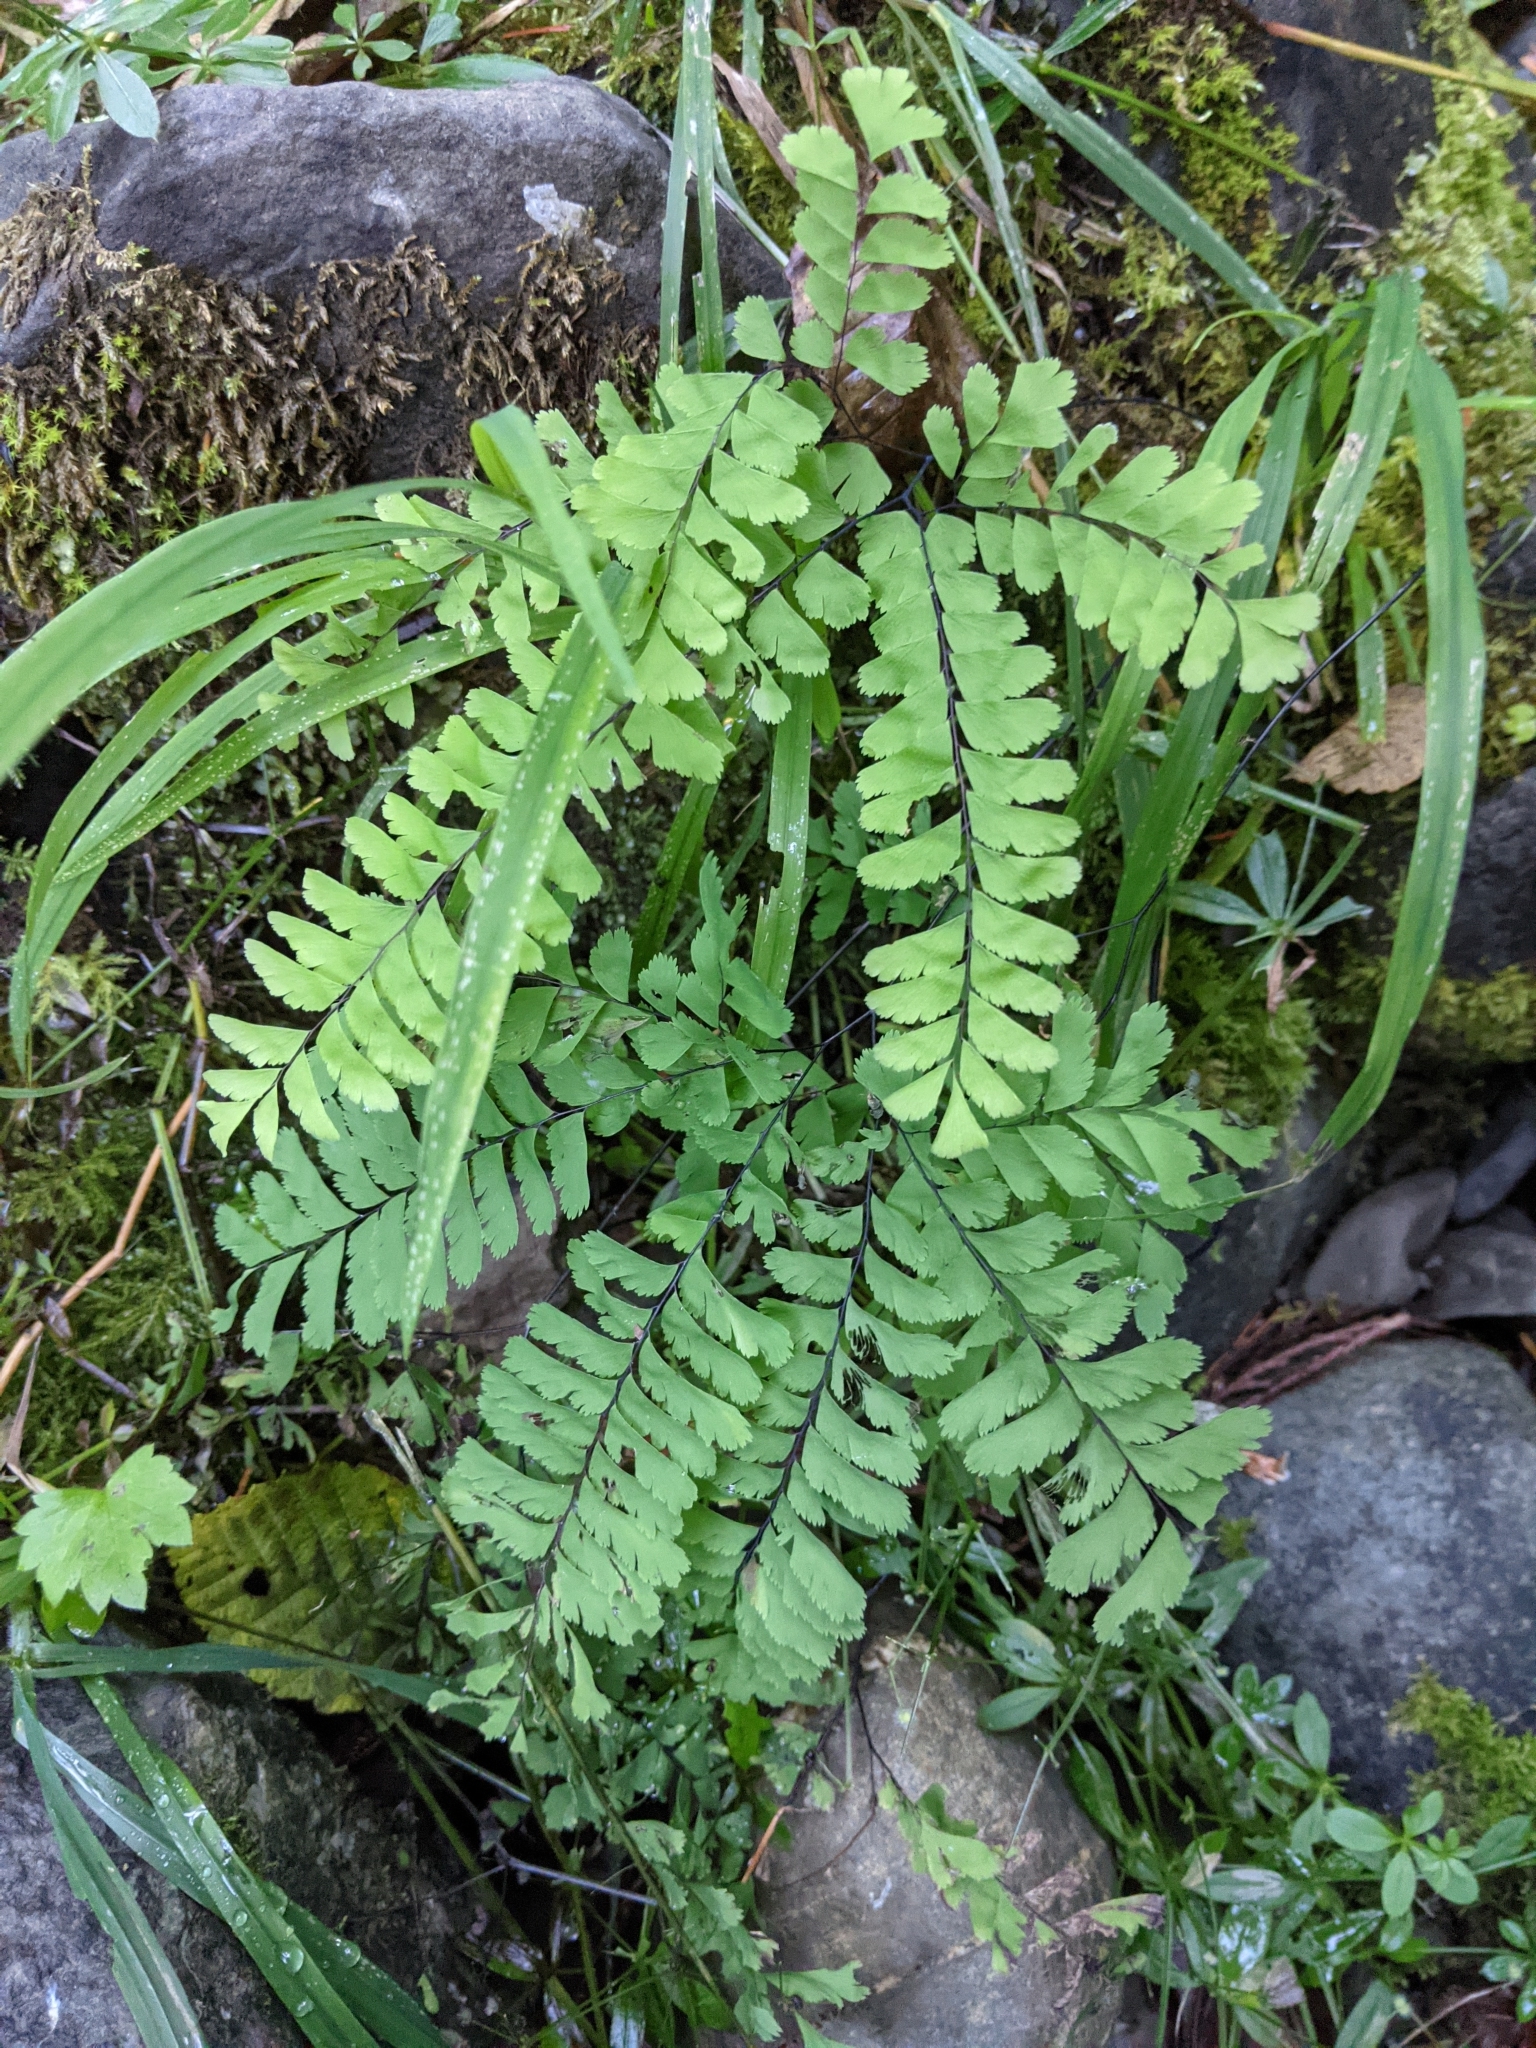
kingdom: Plantae
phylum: Tracheophyta
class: Polypodiopsida
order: Polypodiales
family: Pteridaceae
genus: Adiantum
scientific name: Adiantum aleuticum
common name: Aleutian maidenhair fern
